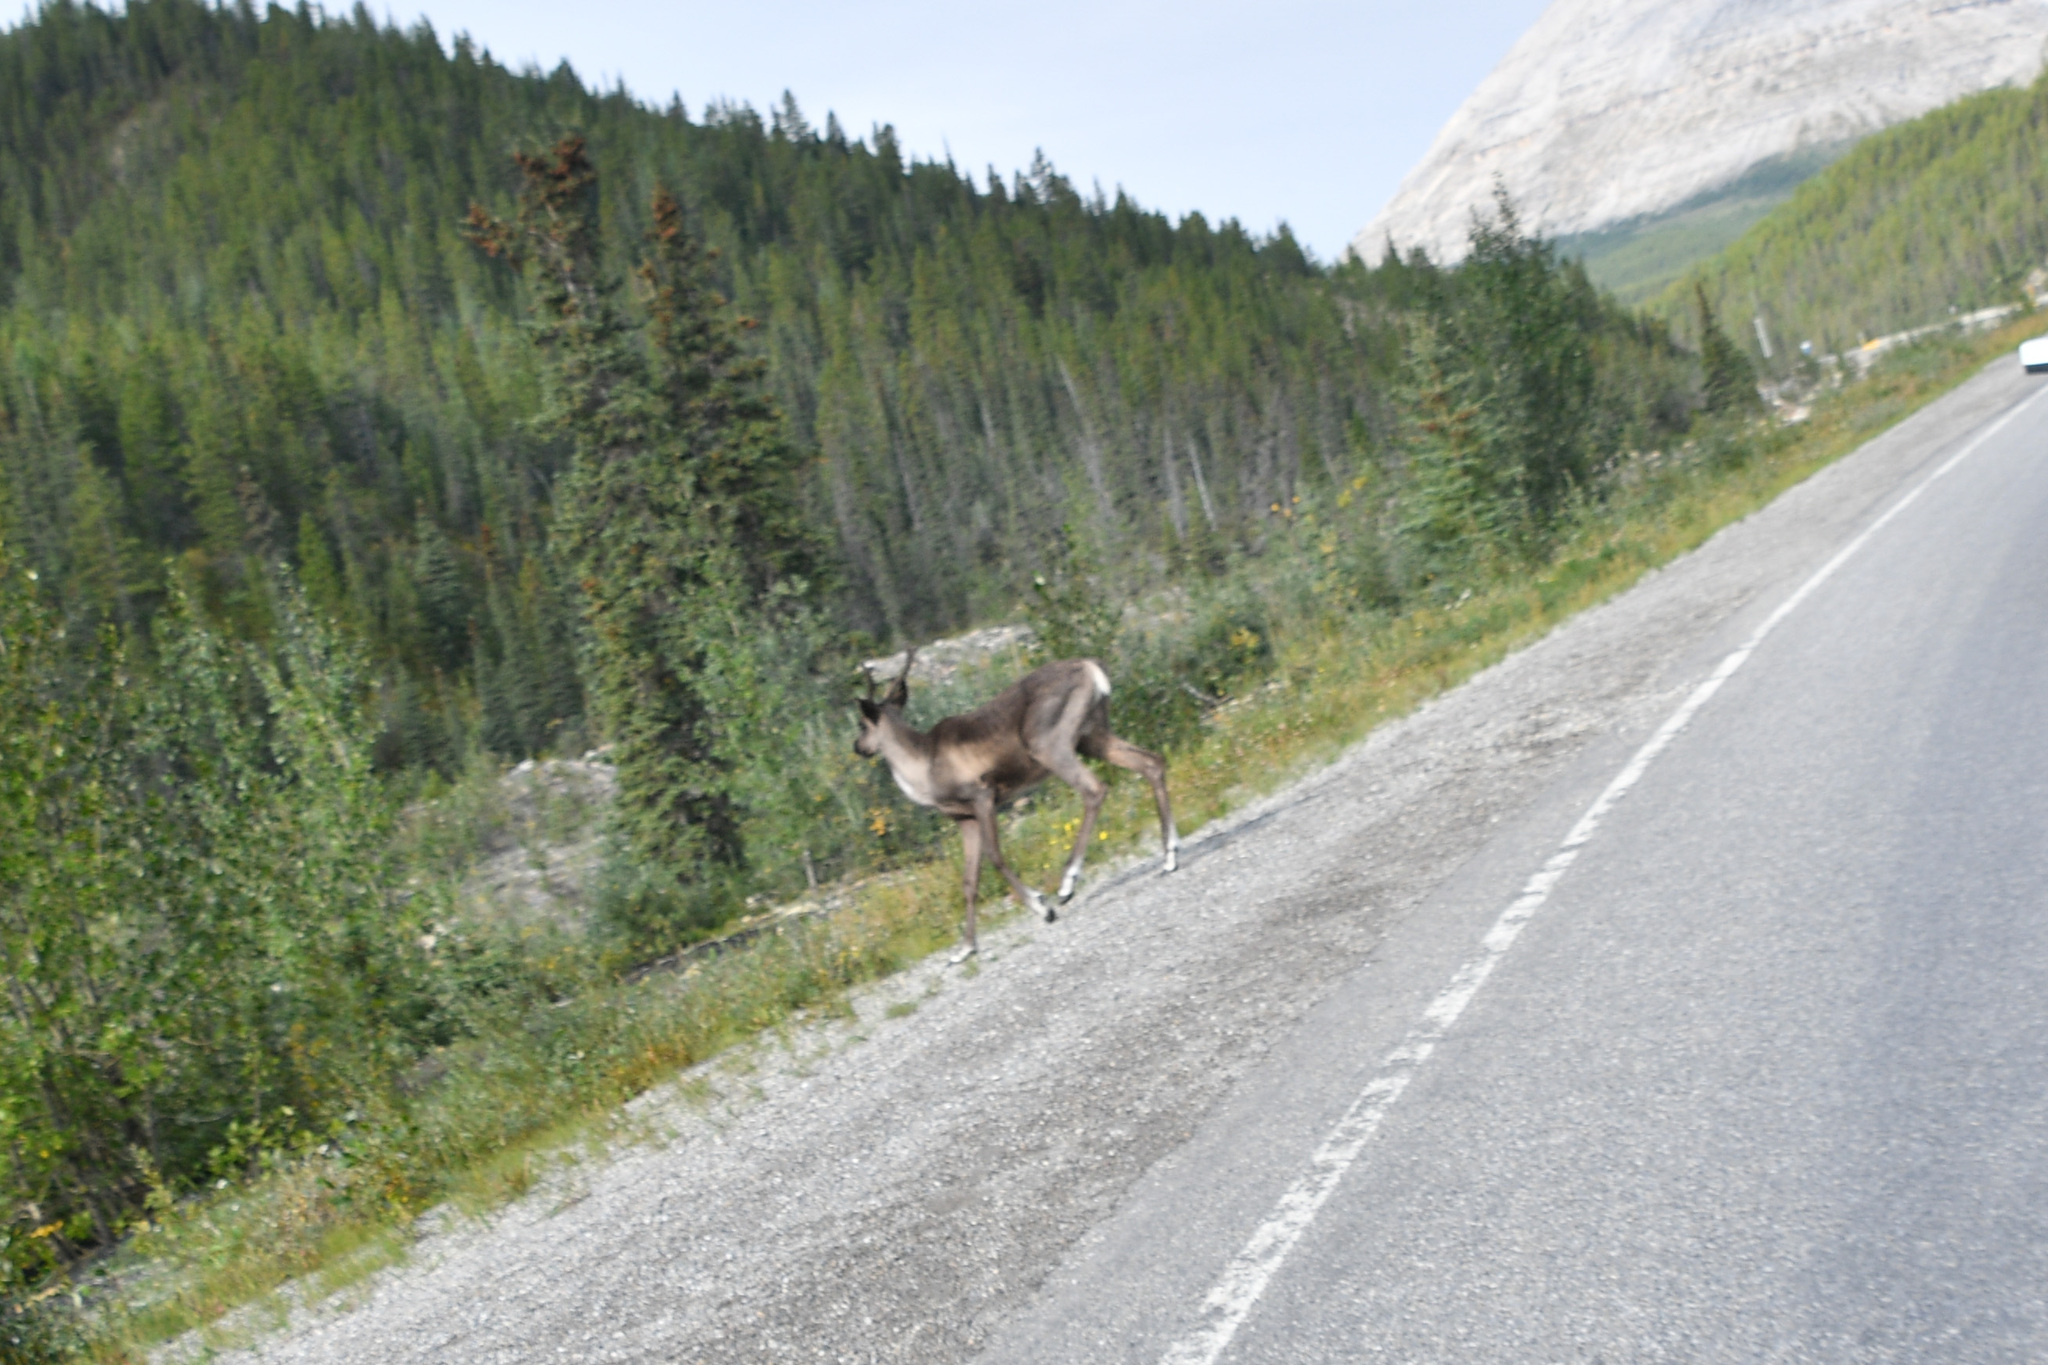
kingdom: Animalia
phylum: Chordata
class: Mammalia
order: Artiodactyla
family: Cervidae
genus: Rangifer
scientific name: Rangifer tarandus
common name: Reindeer
